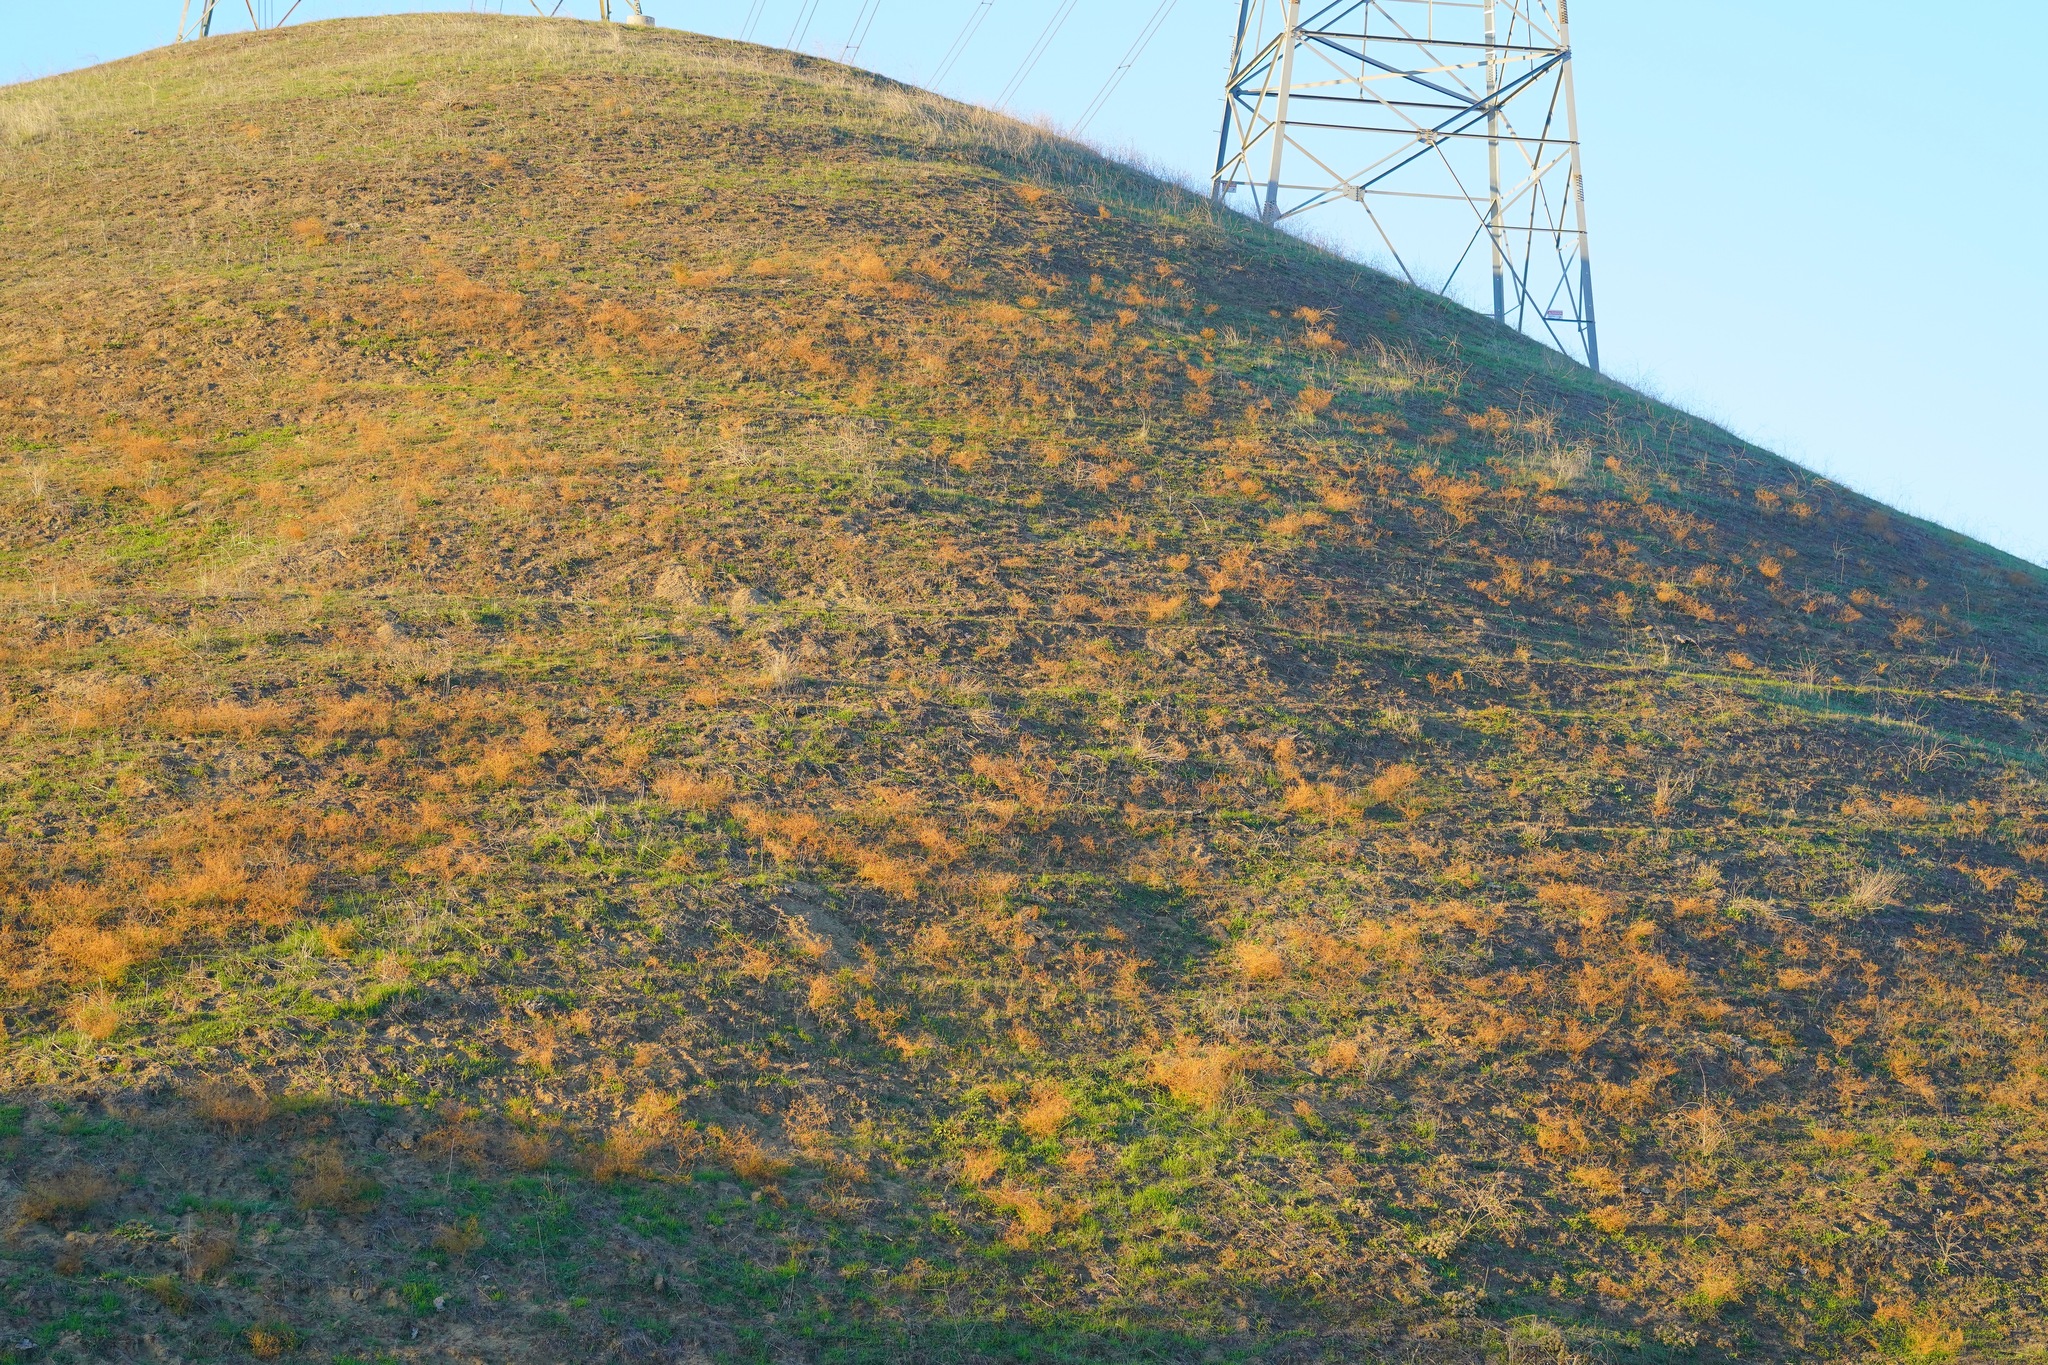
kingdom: Plantae
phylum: Tracheophyta
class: Magnoliopsida
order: Asterales
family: Asteraceae
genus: Deinandra
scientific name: Deinandra lobbii
